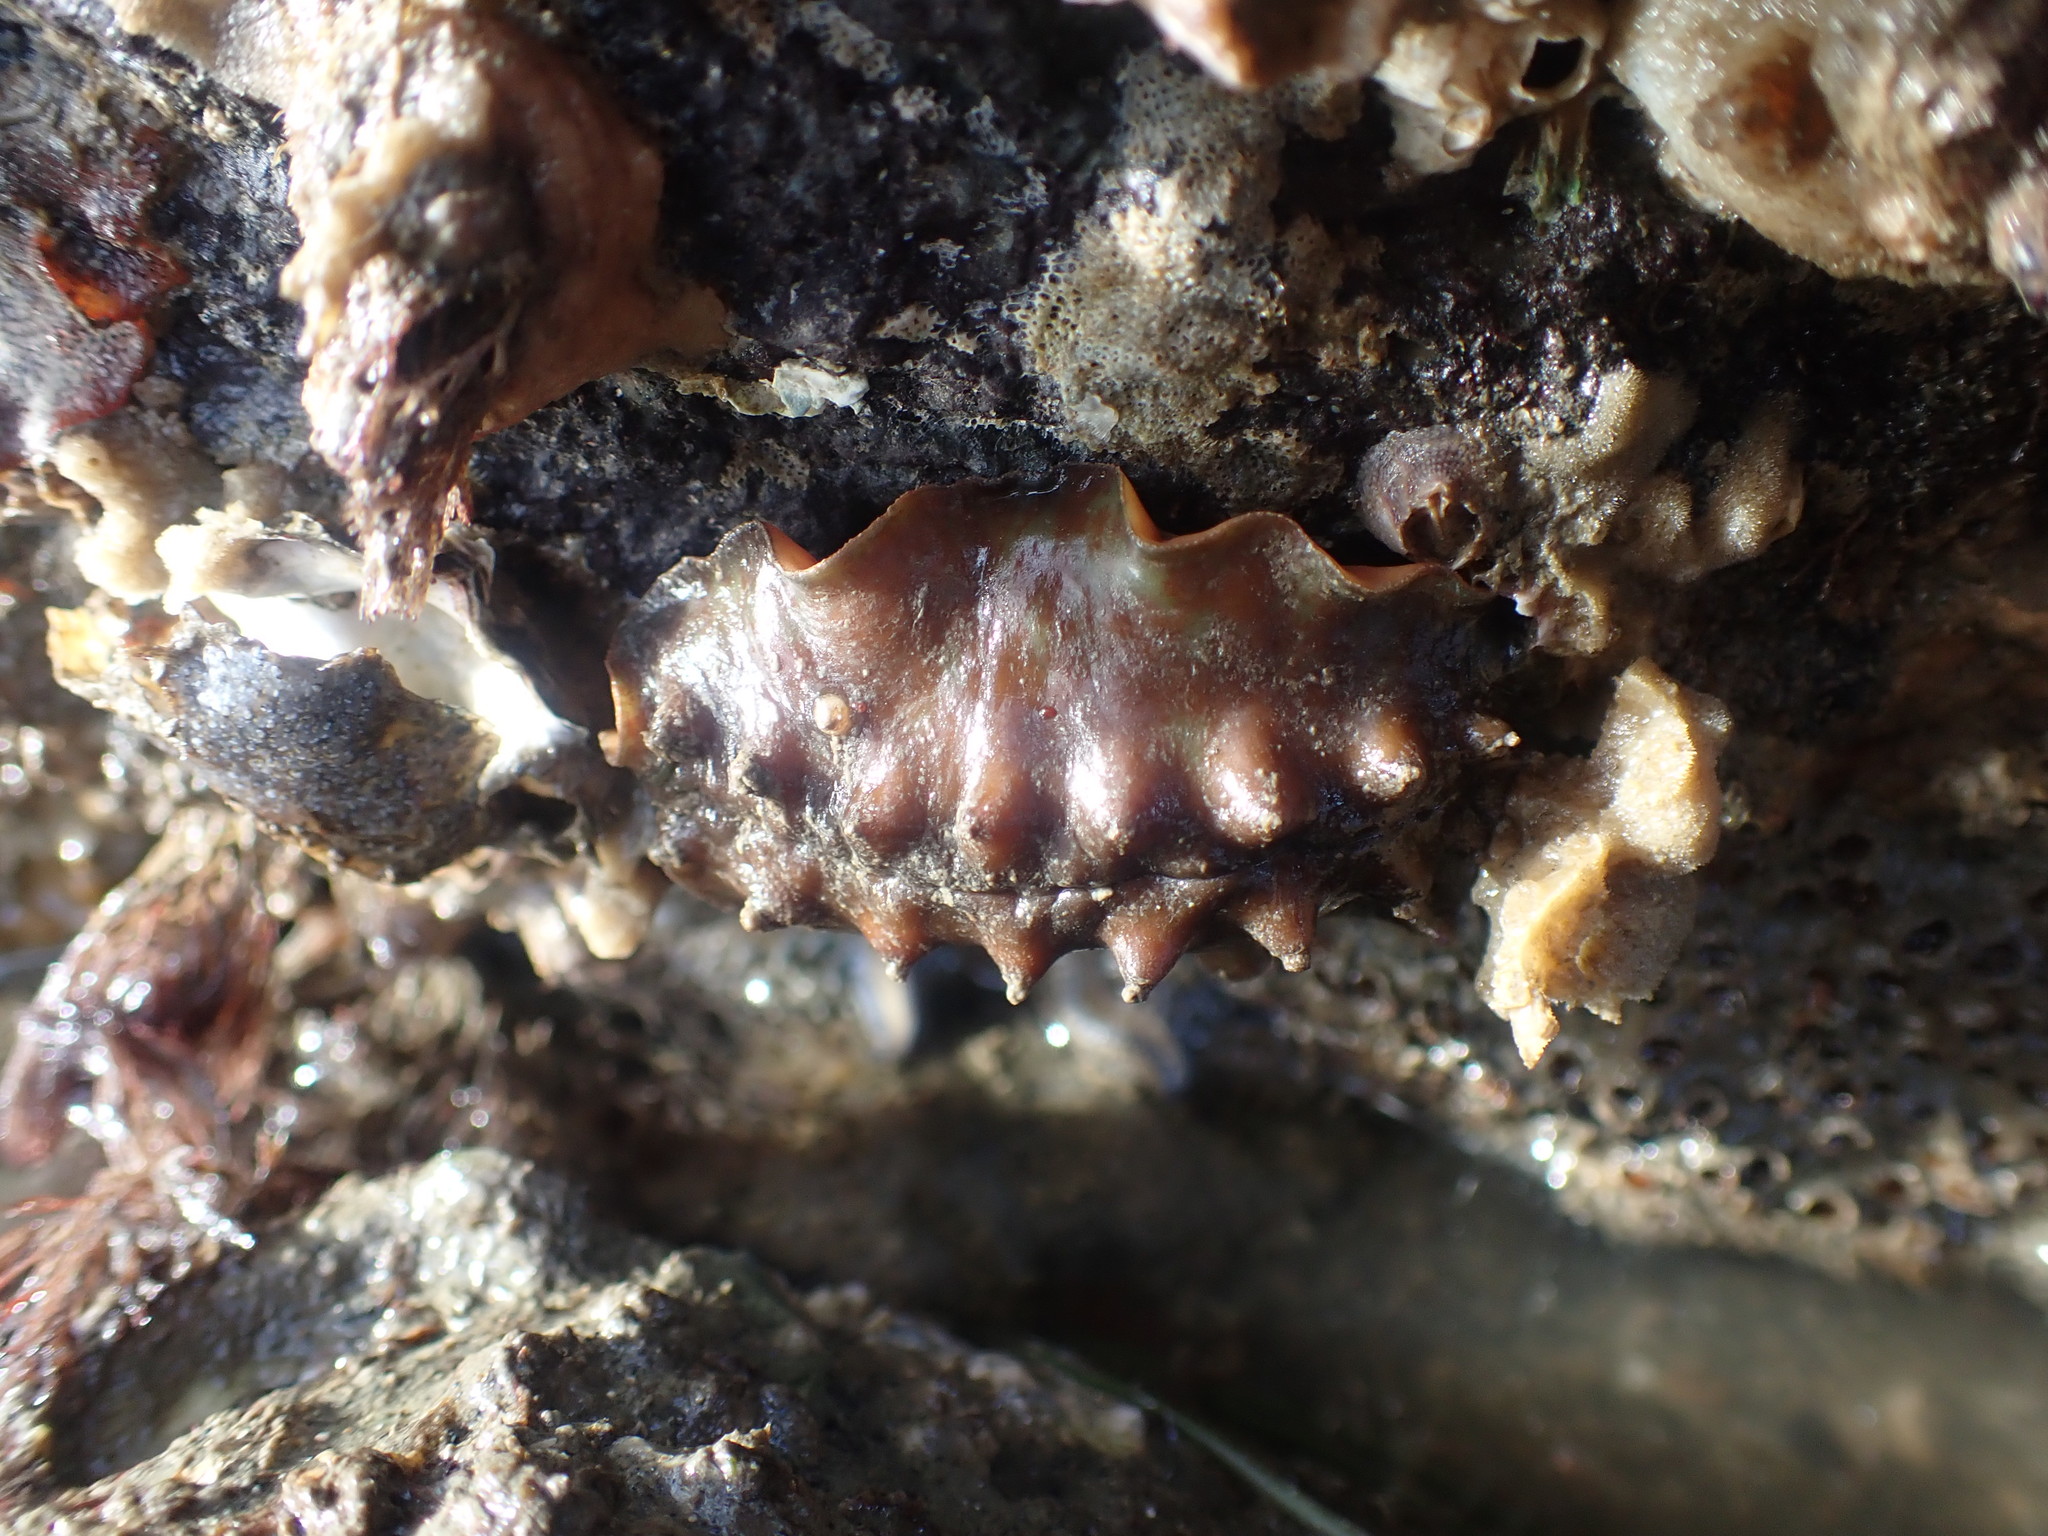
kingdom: Animalia
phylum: Mollusca
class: Polyplacophora
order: Chitonida
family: Acanthochitonidae
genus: Cryptoconchus
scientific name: Cryptoconchus porosus
